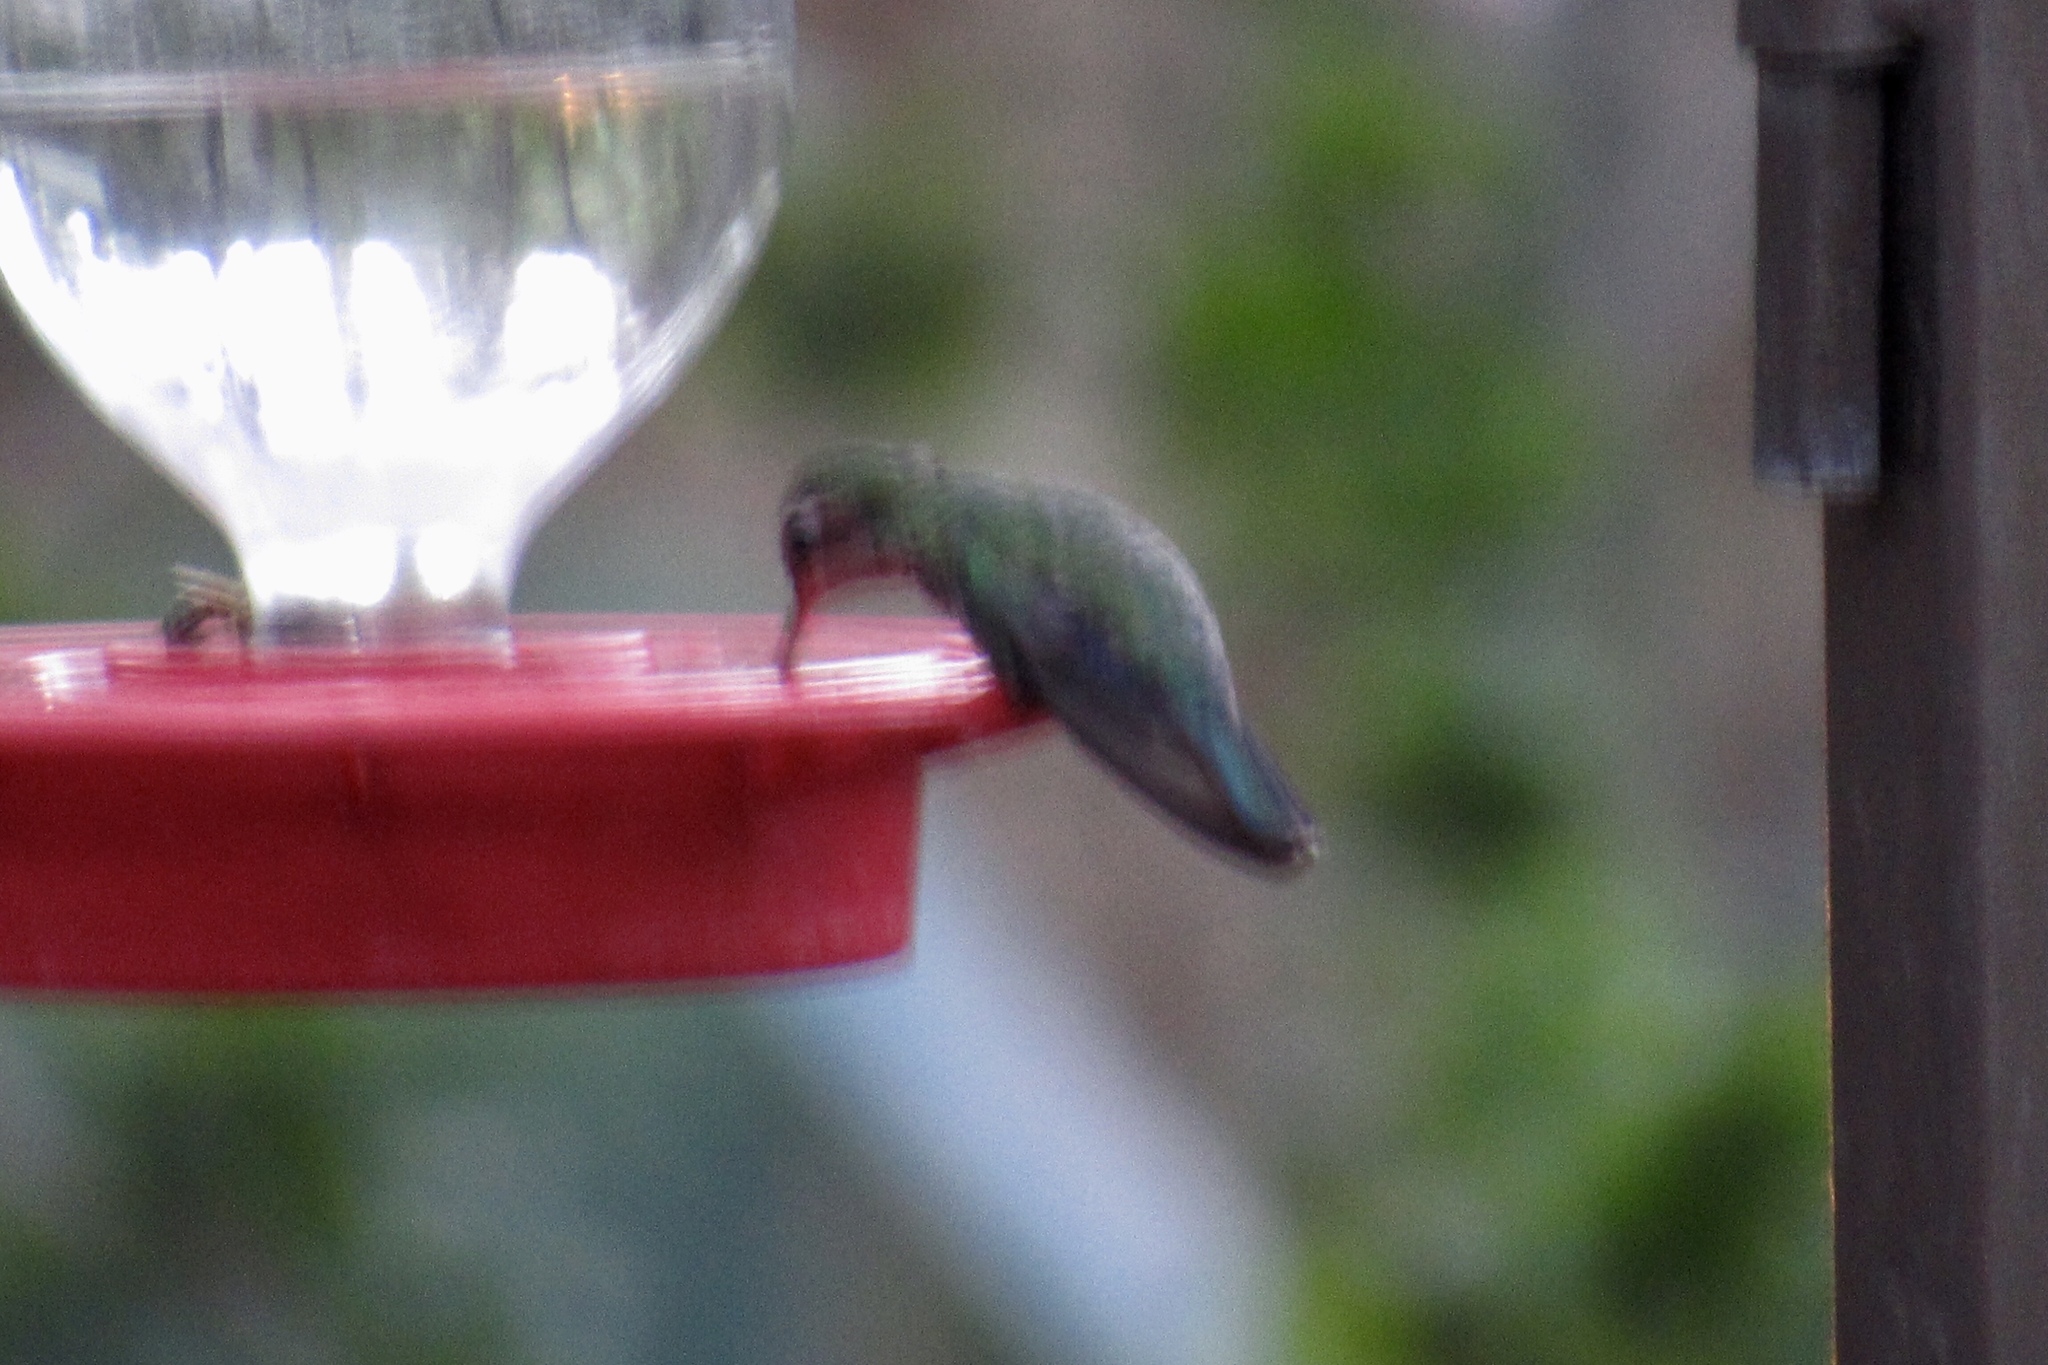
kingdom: Animalia
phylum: Chordata
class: Aves
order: Apodiformes
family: Trochilidae
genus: Cynanthus
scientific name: Cynanthus latirostris
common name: Broad-billed hummingbird
